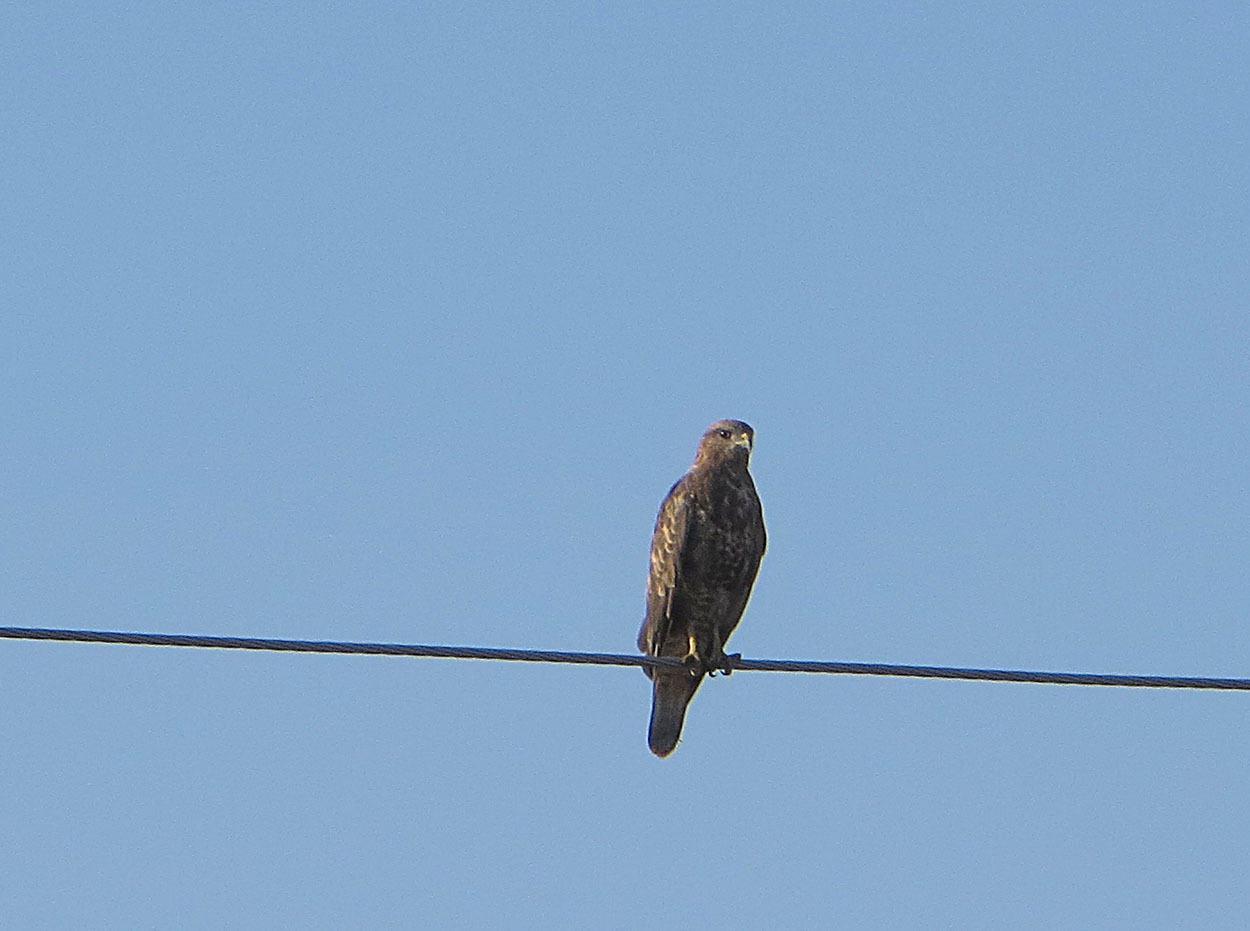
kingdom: Animalia
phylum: Chordata
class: Aves
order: Accipitriformes
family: Accipitridae
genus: Buteo
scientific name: Buteo buteo
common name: Common buzzard
